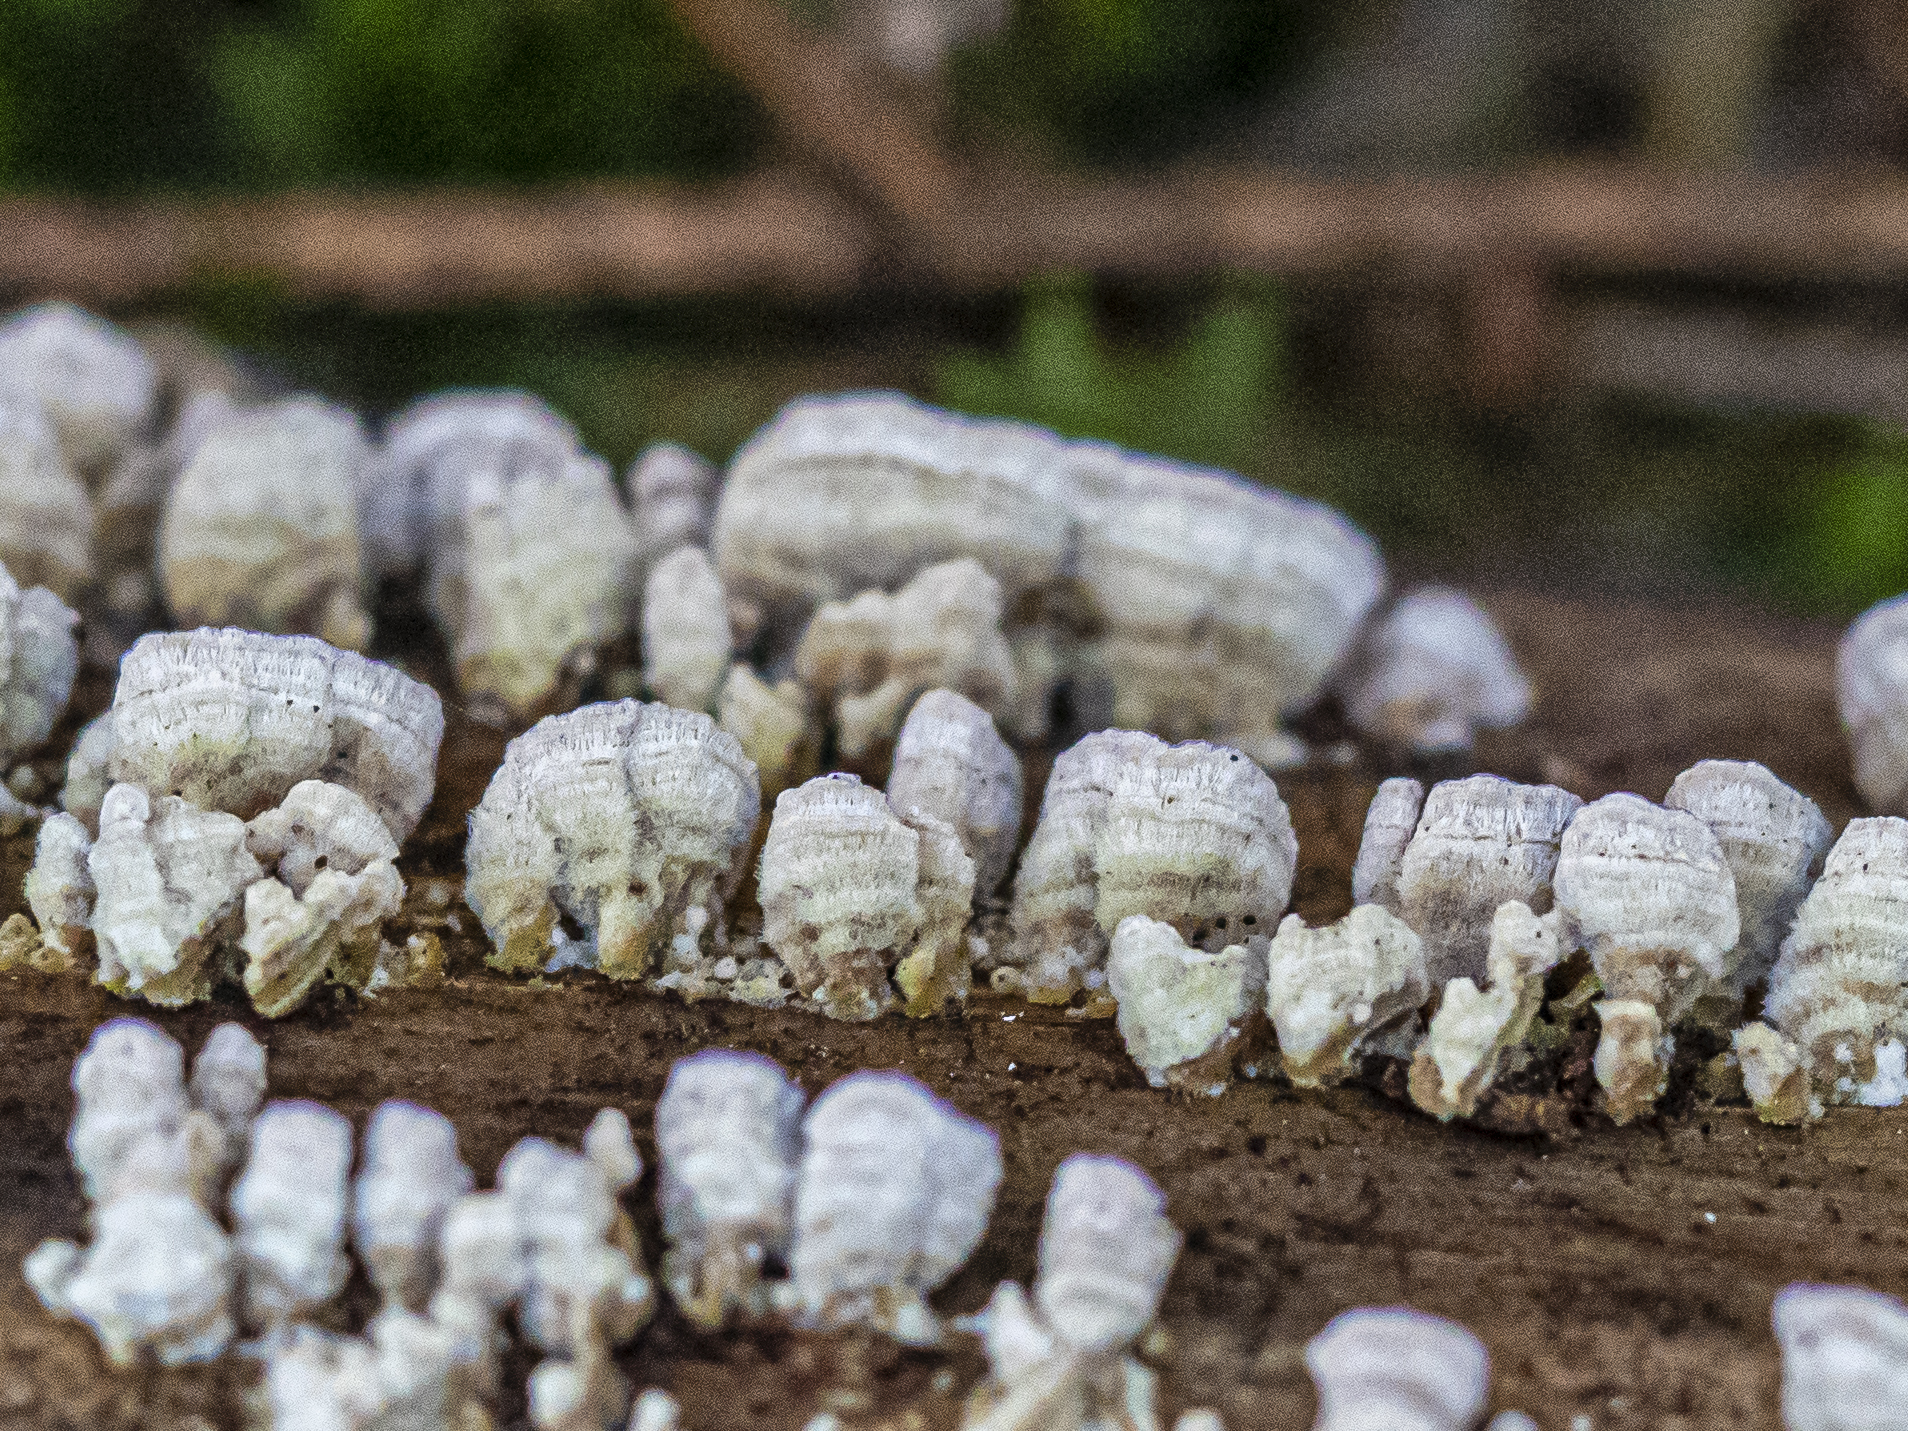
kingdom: Fungi
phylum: Basidiomycota
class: Agaricomycetes
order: Hymenochaetales
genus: Trichaptum
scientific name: Trichaptum abietinum
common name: Purplepore bracket
